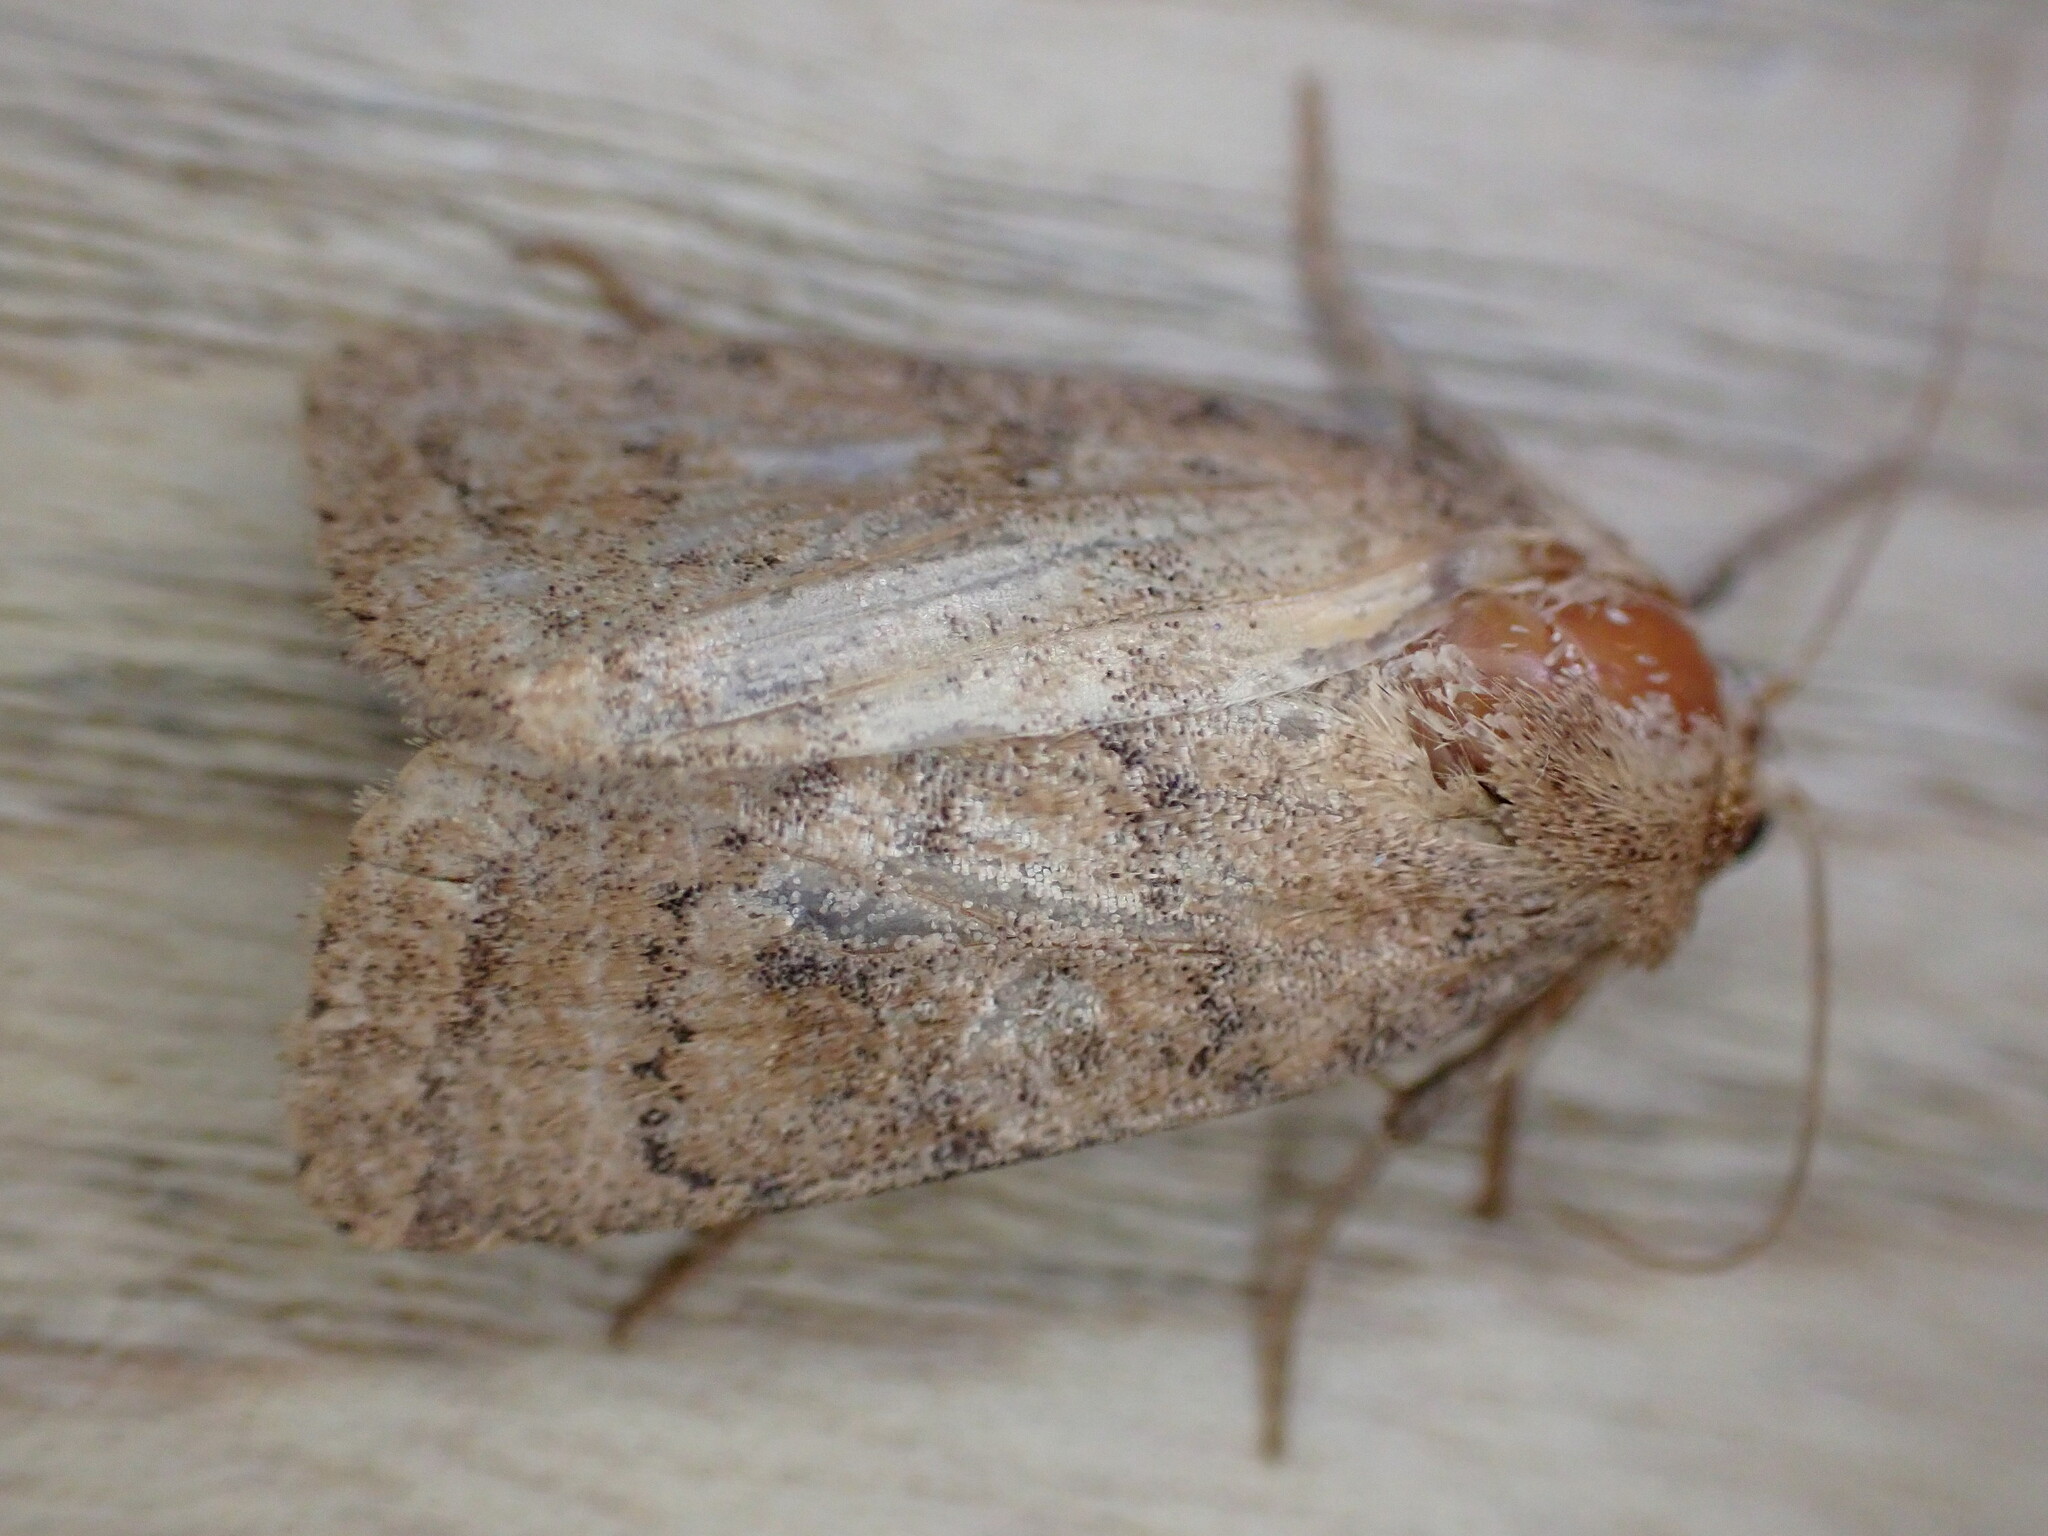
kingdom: Animalia
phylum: Arthropoda
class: Insecta
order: Lepidoptera
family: Noctuidae
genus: Hoplodrina
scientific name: Hoplodrina octogenaria
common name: Uncertain
